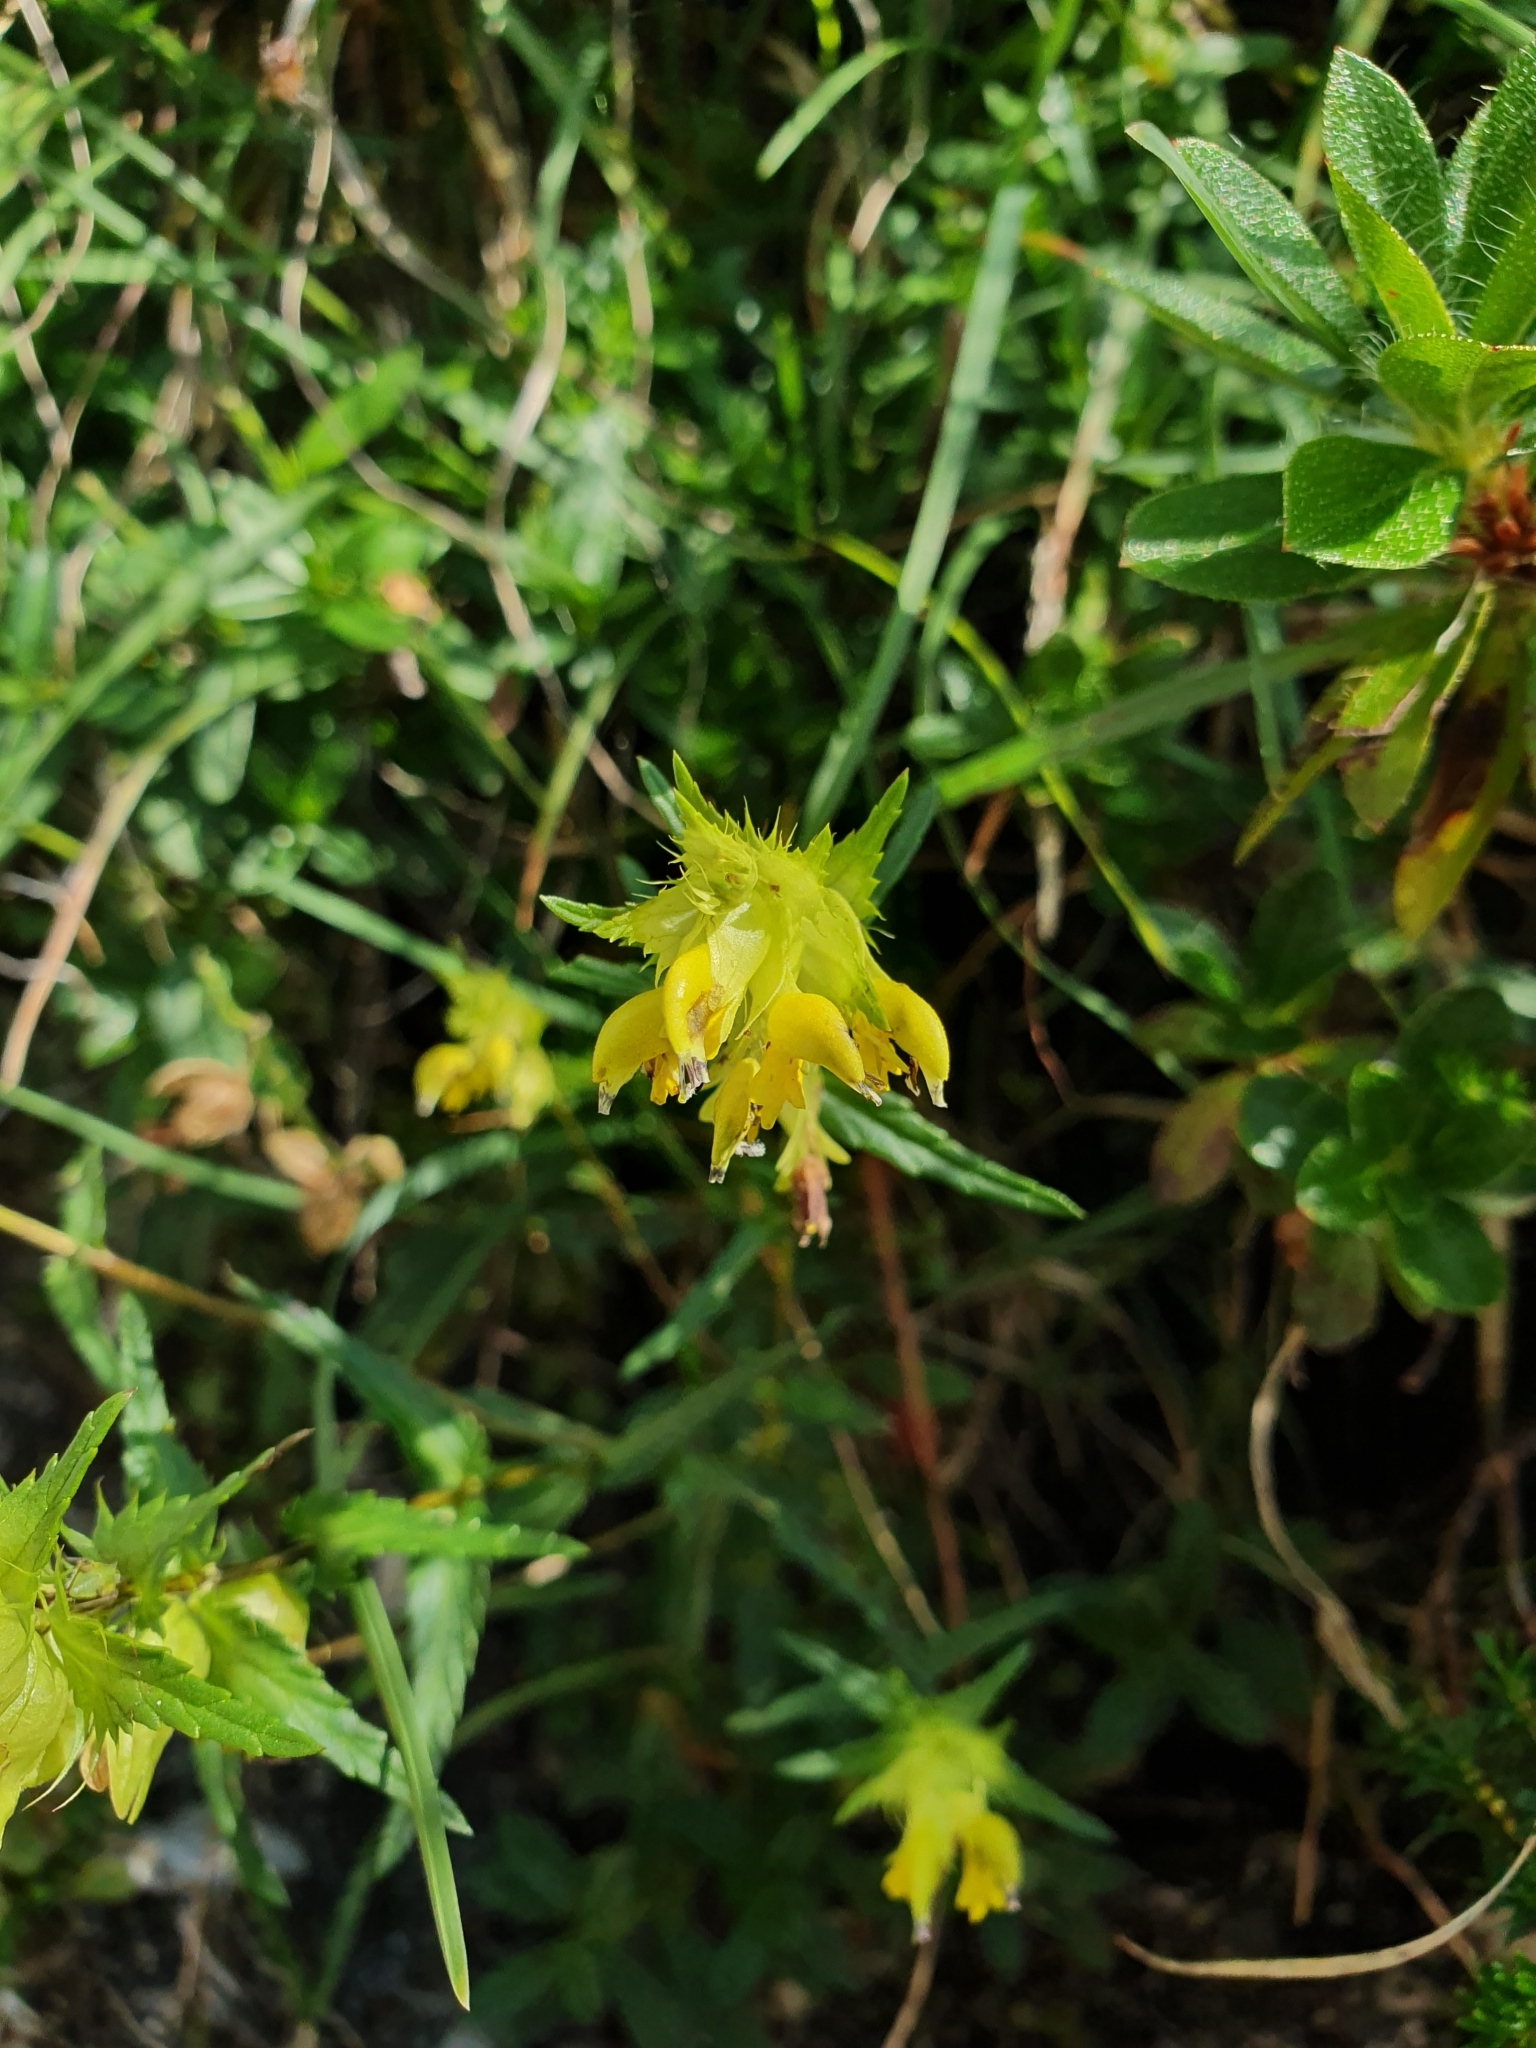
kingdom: Plantae
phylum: Tracheophyta
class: Magnoliopsida
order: Lamiales
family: Orobanchaceae
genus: Rhinanthus
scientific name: Rhinanthus glacialis
